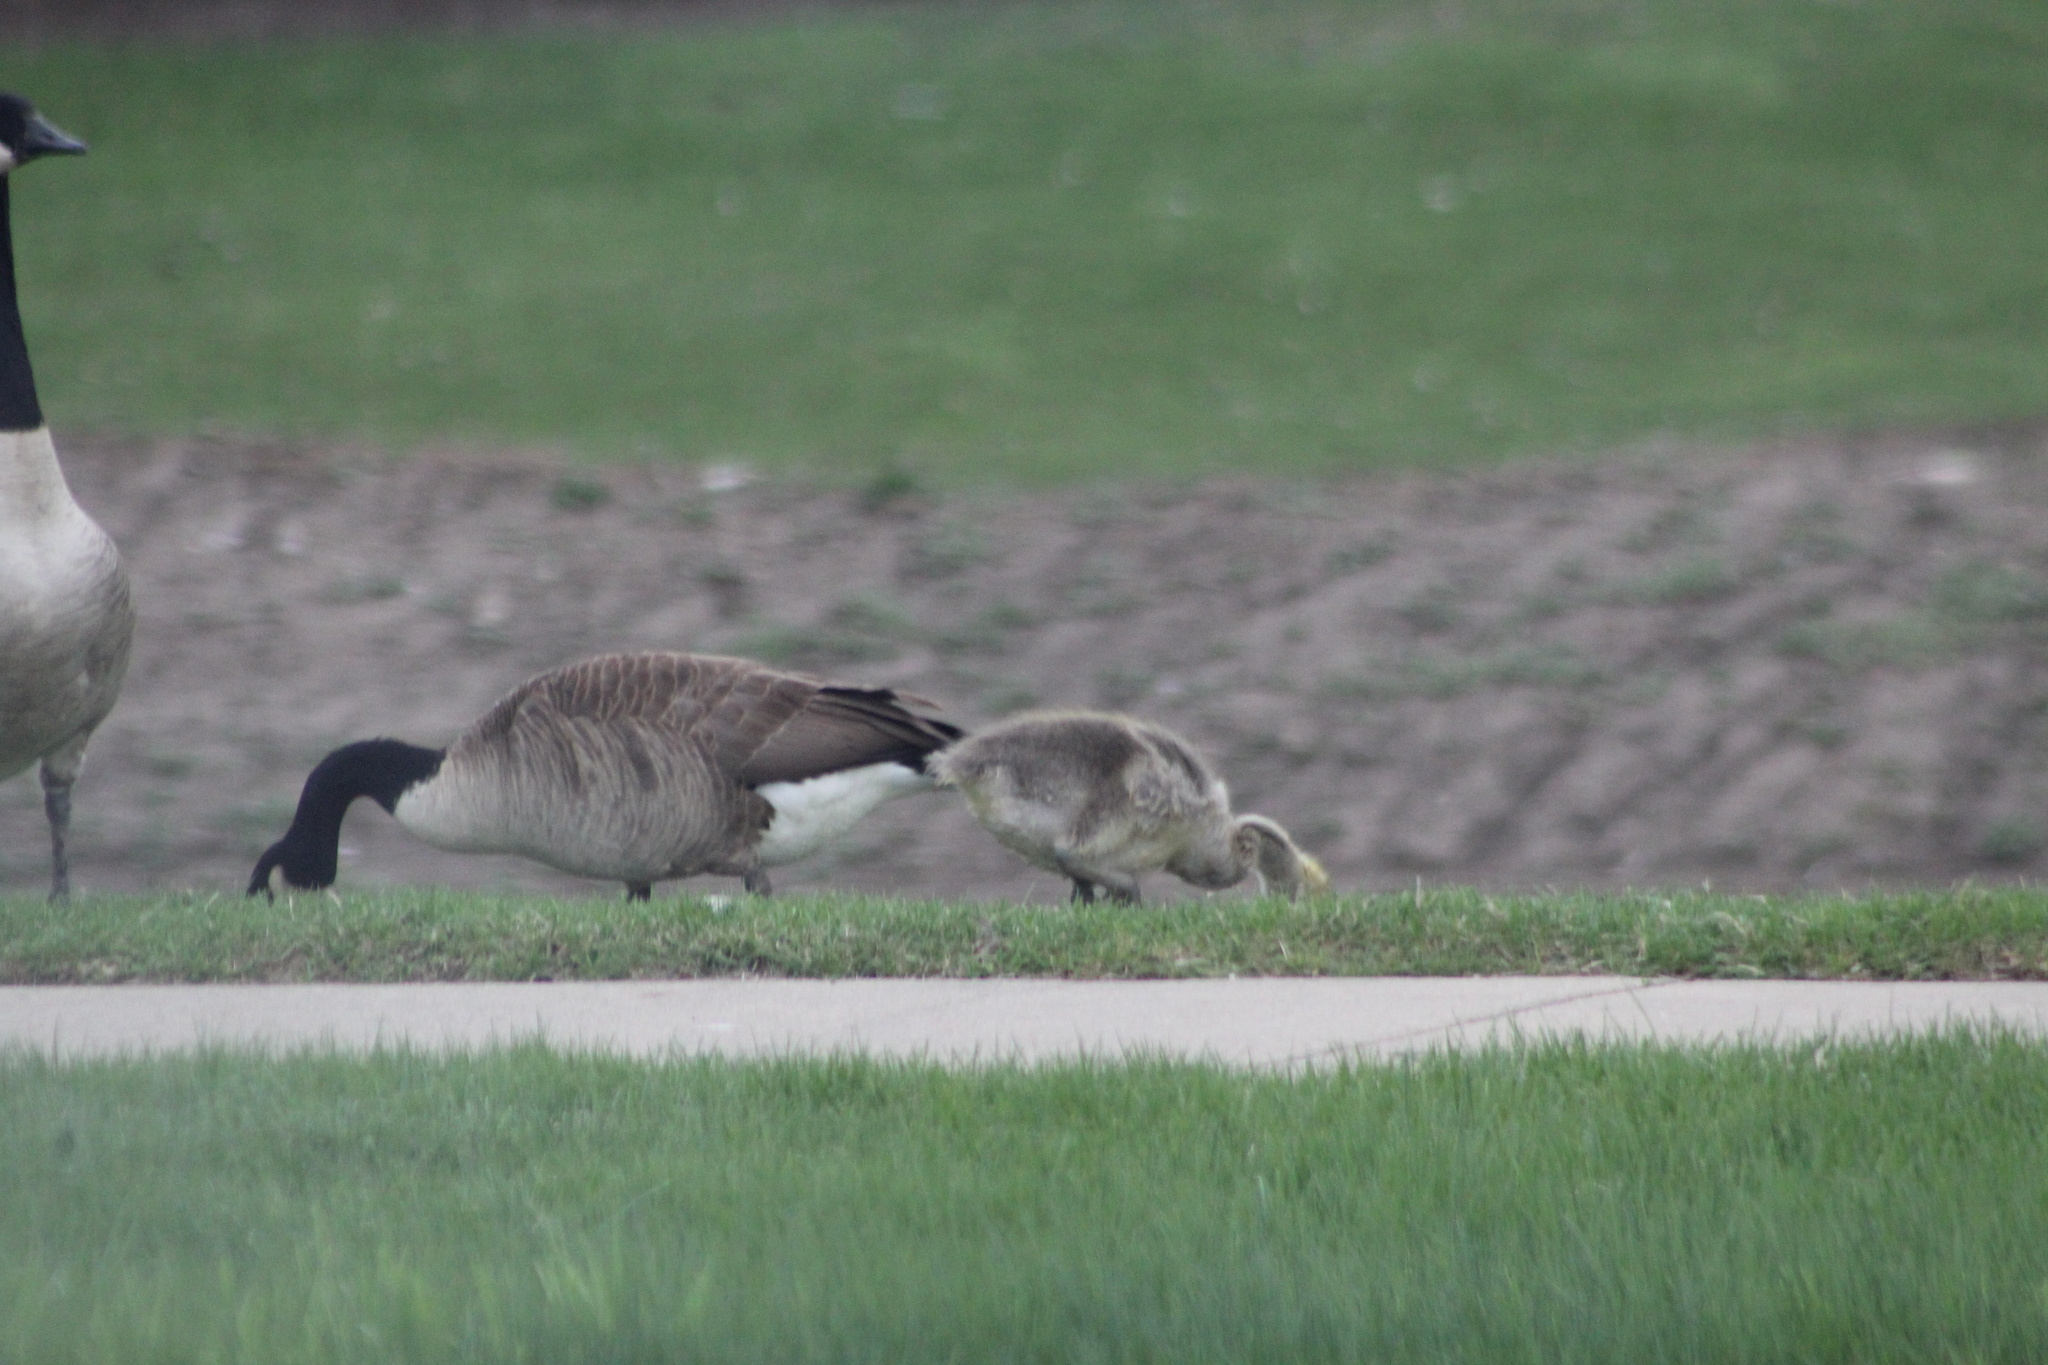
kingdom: Animalia
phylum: Chordata
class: Aves
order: Anseriformes
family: Anatidae
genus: Branta
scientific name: Branta canadensis
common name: Canada goose
